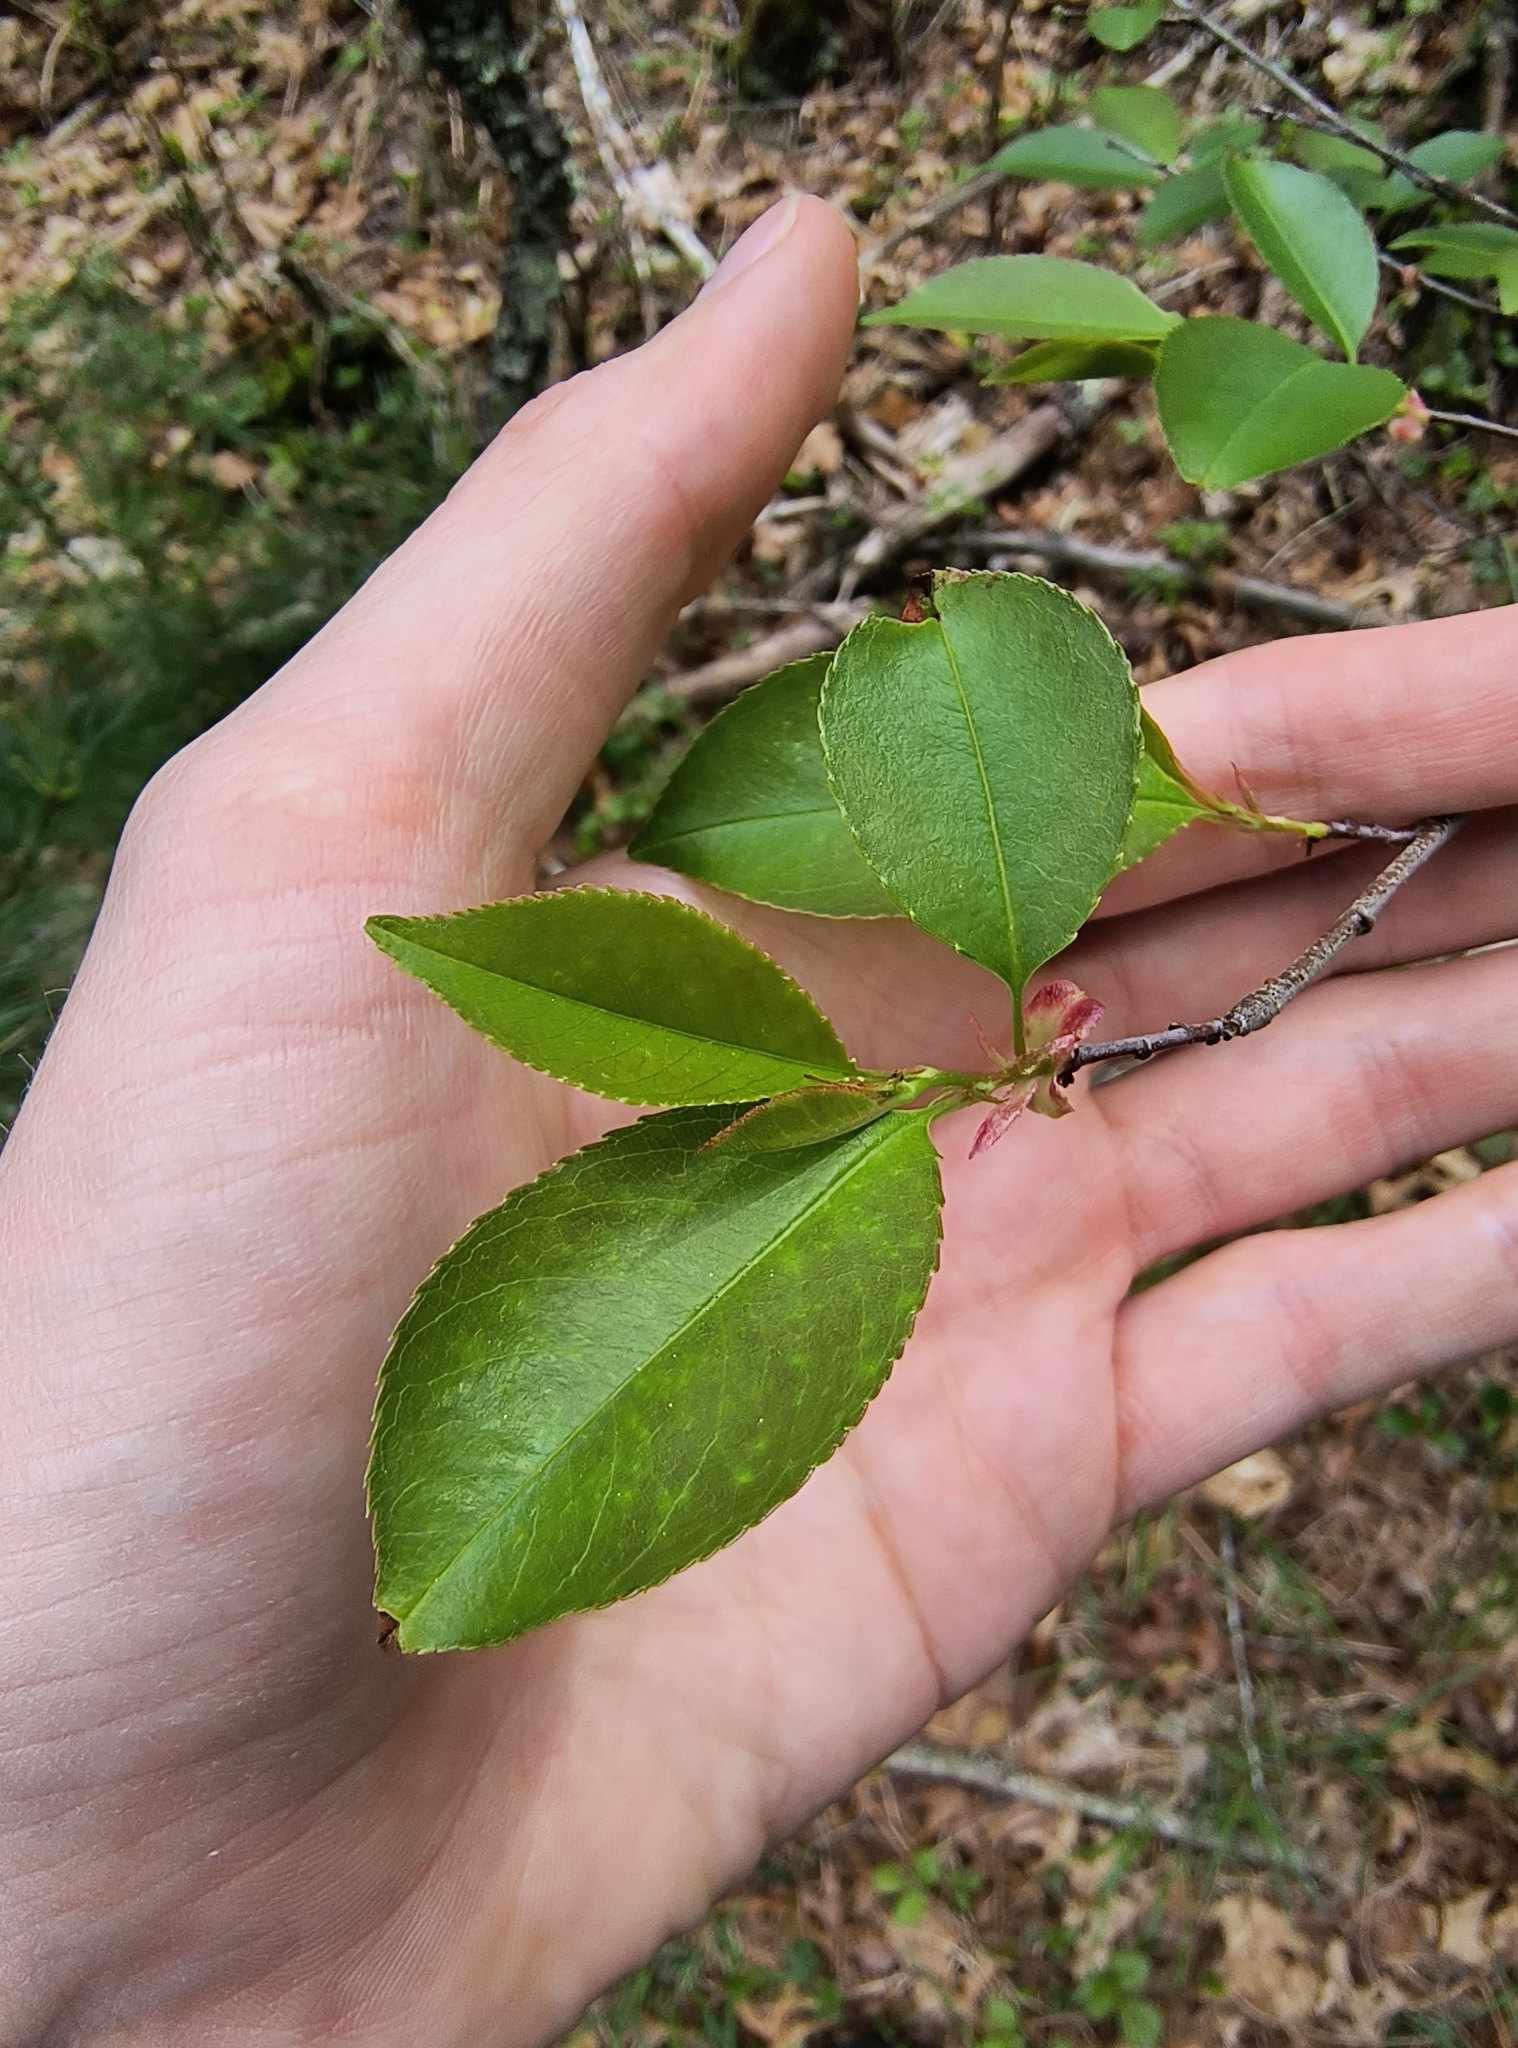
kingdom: Animalia
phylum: Arthropoda
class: Insecta
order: Lepidoptera
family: Lasiocampidae
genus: Malacosoma
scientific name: Malacosoma americana
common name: Eastern tent caterpillar moth
